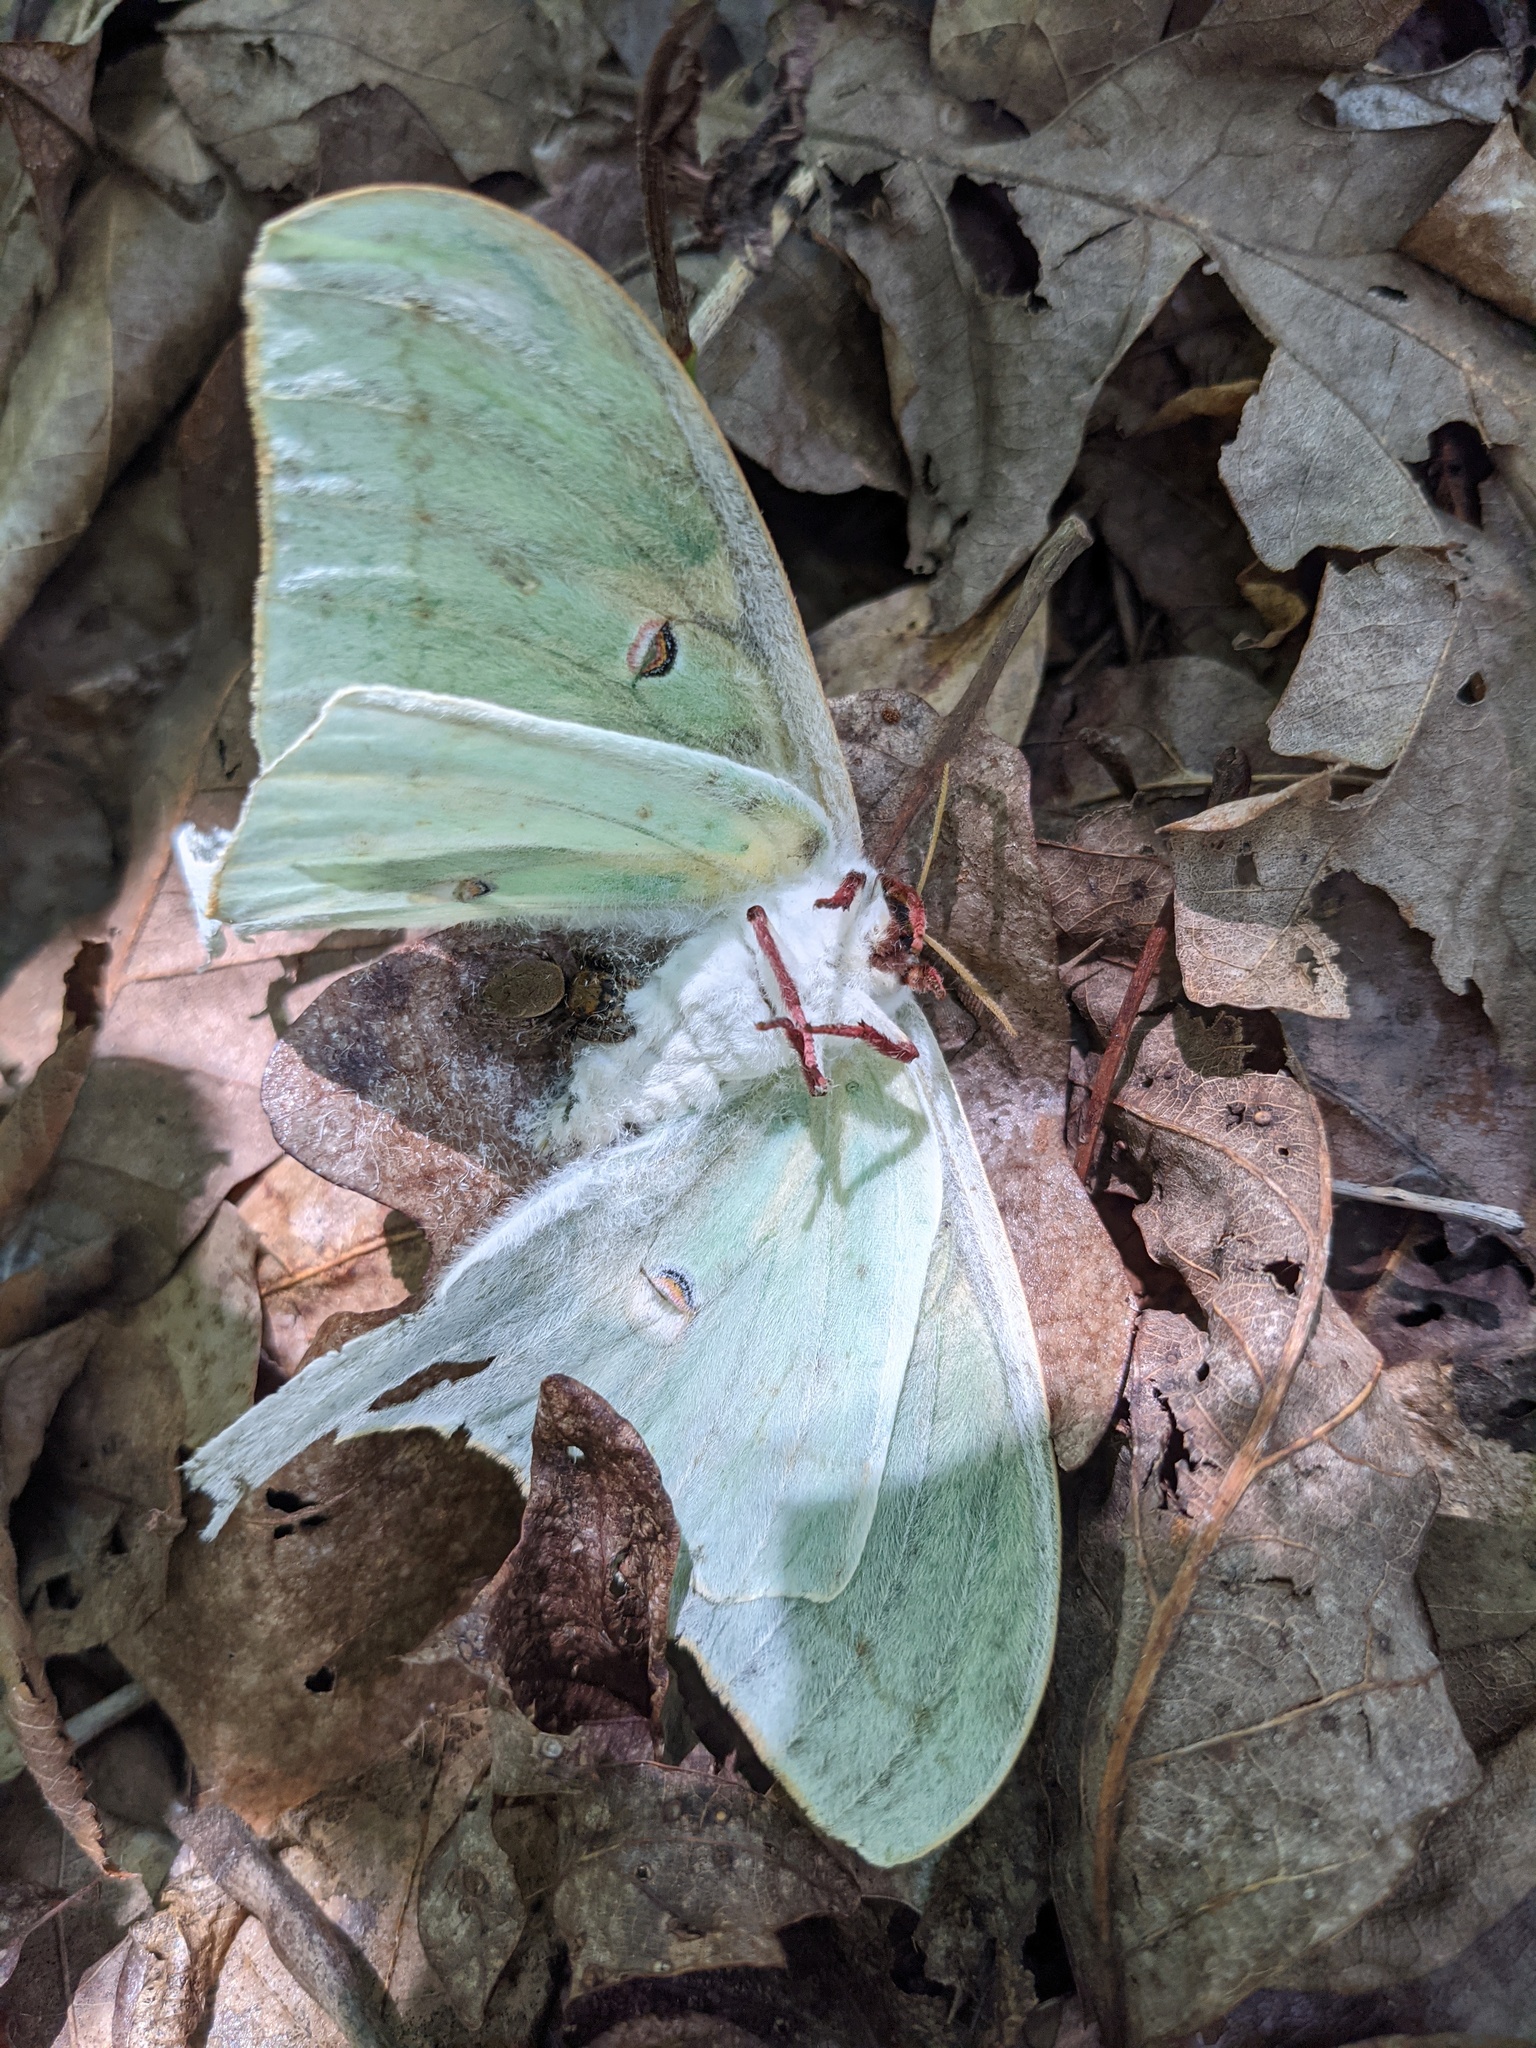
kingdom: Animalia
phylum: Arthropoda
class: Insecta
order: Lepidoptera
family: Saturniidae
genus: Actias
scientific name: Actias luna
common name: Luna moth
